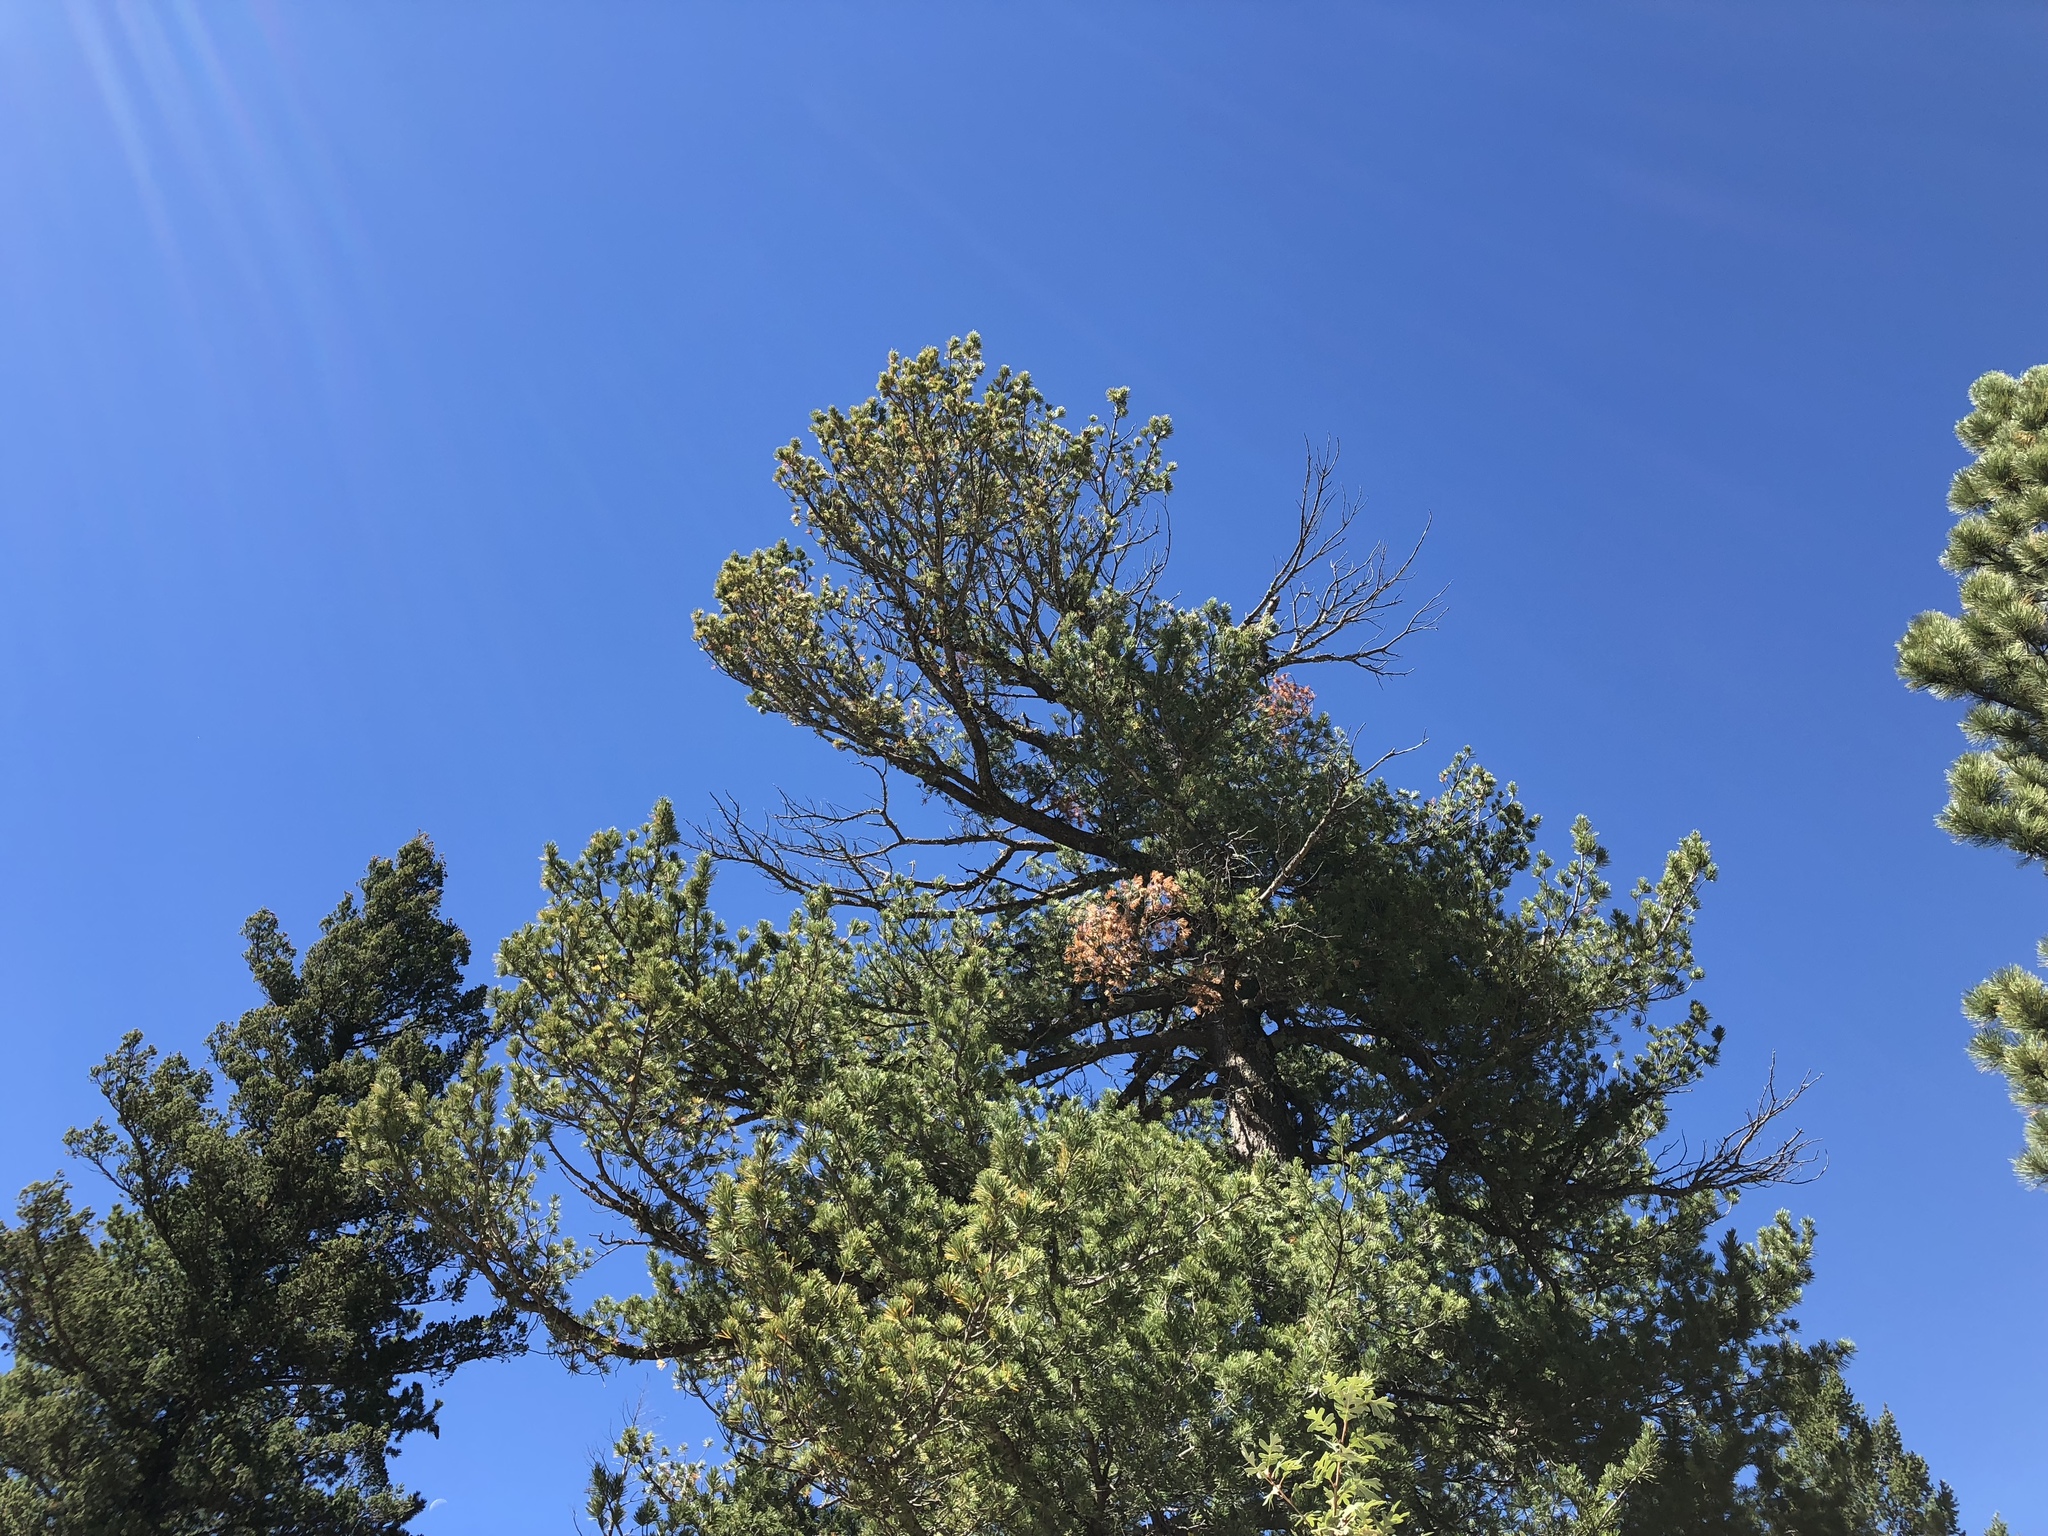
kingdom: Plantae
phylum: Tracheophyta
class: Pinopsida
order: Pinales
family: Pinaceae
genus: Pinus
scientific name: Pinus strobiformis
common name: Southwestern white pine
